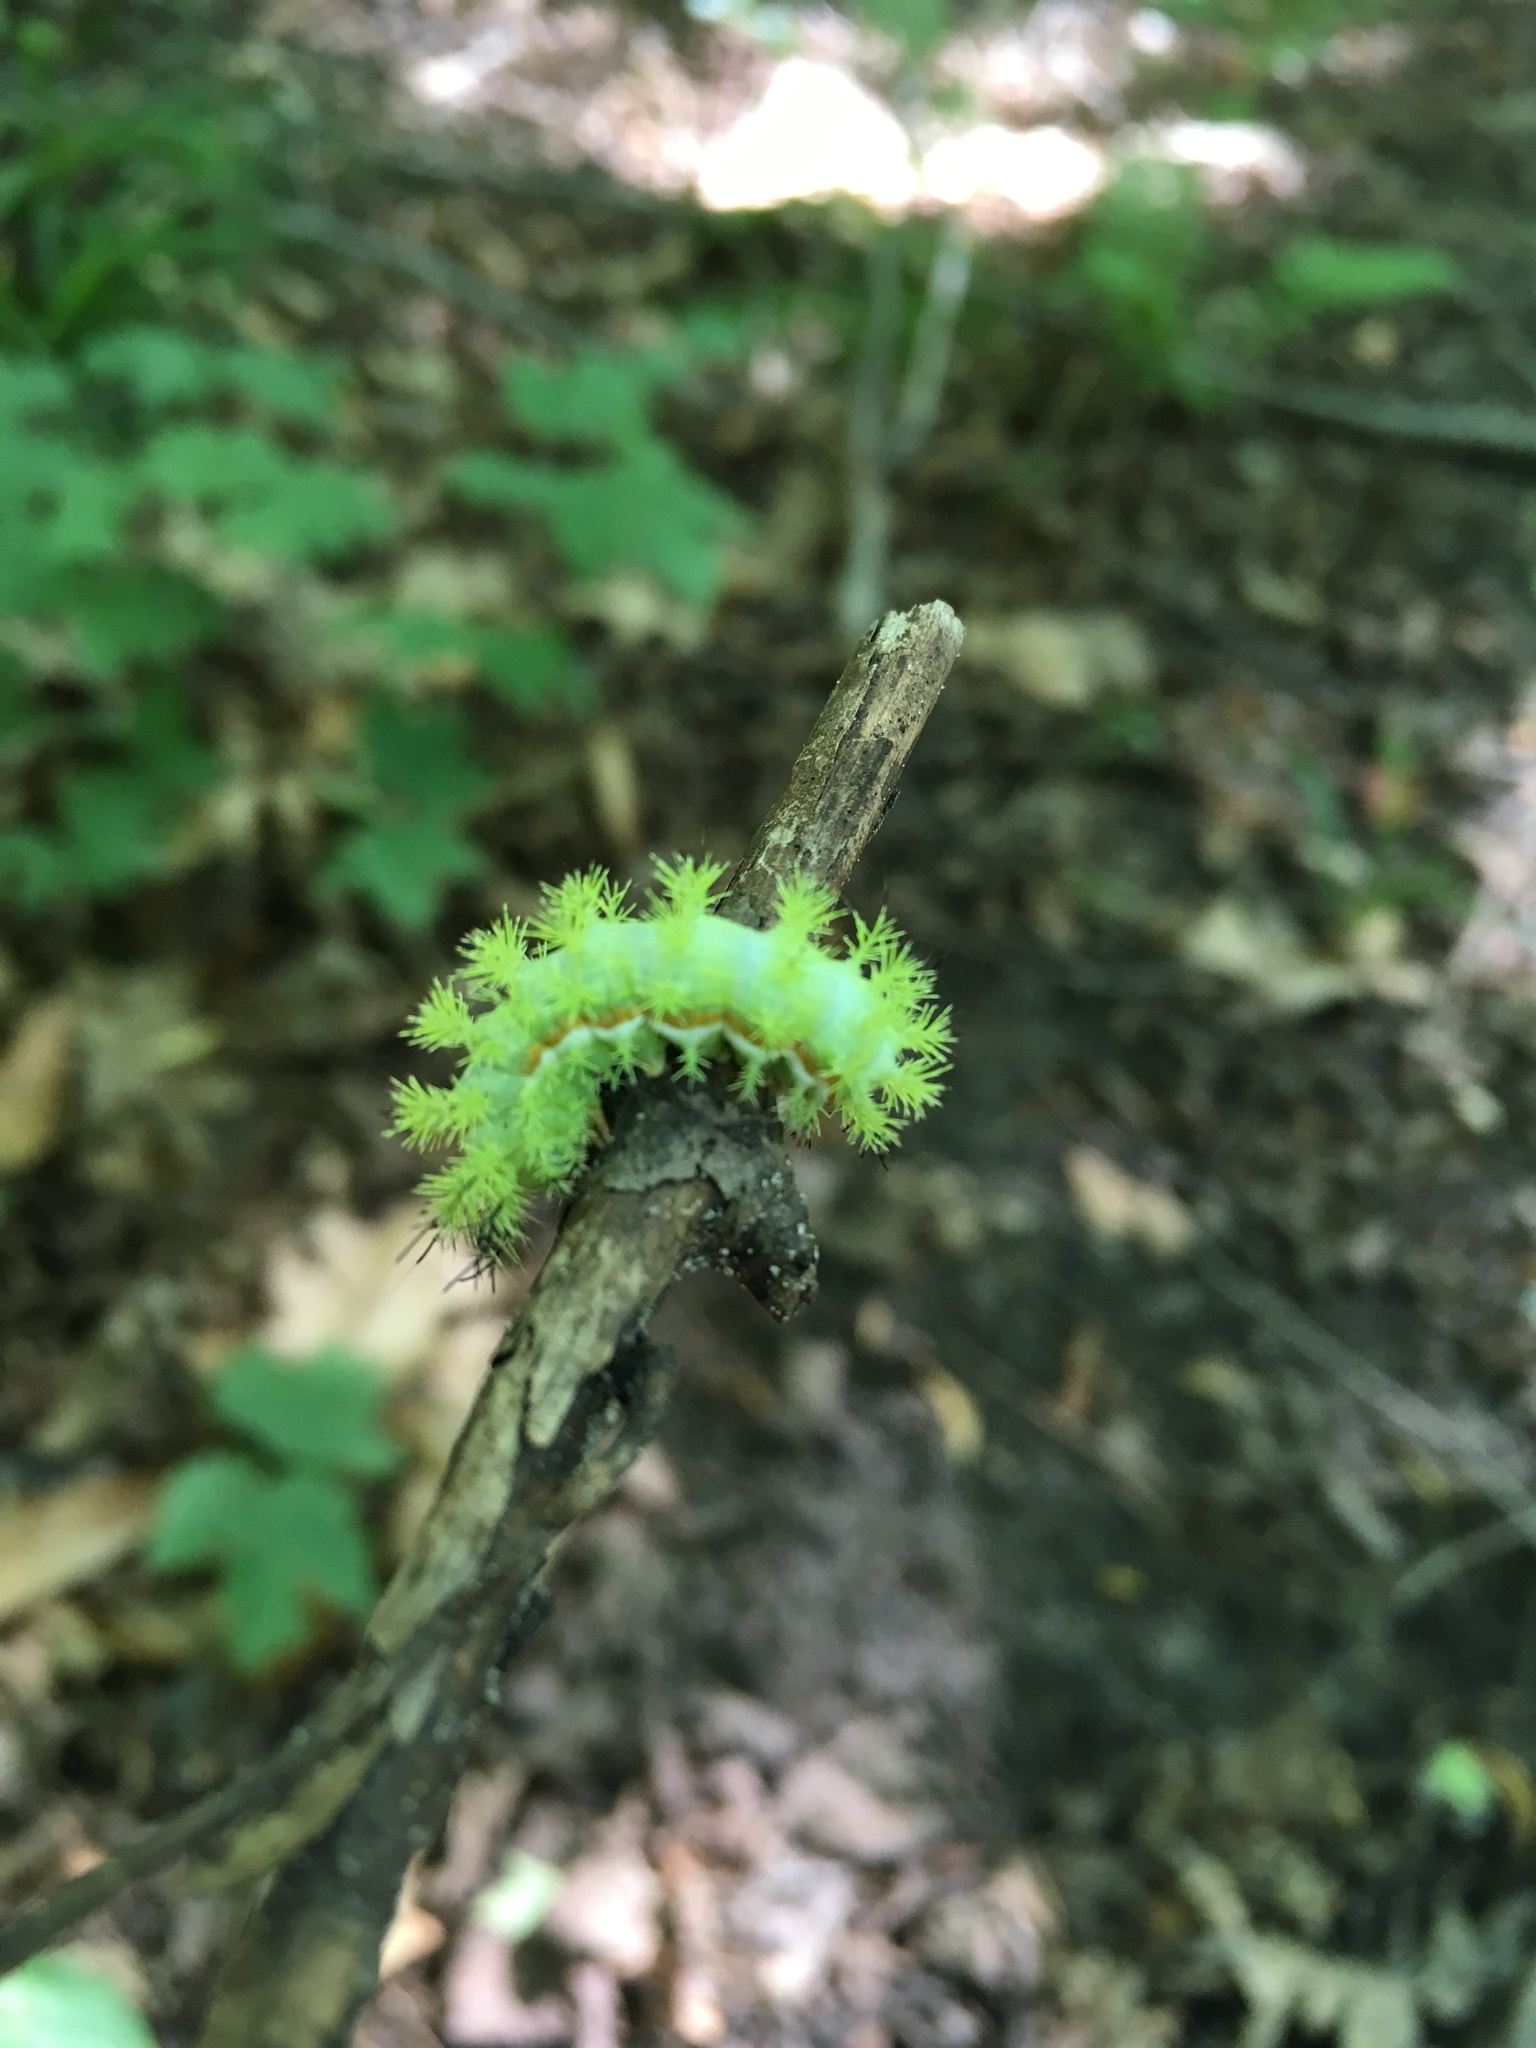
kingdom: Animalia
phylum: Arthropoda
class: Insecta
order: Lepidoptera
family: Saturniidae
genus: Automeris
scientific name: Automeris io
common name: Io moth
